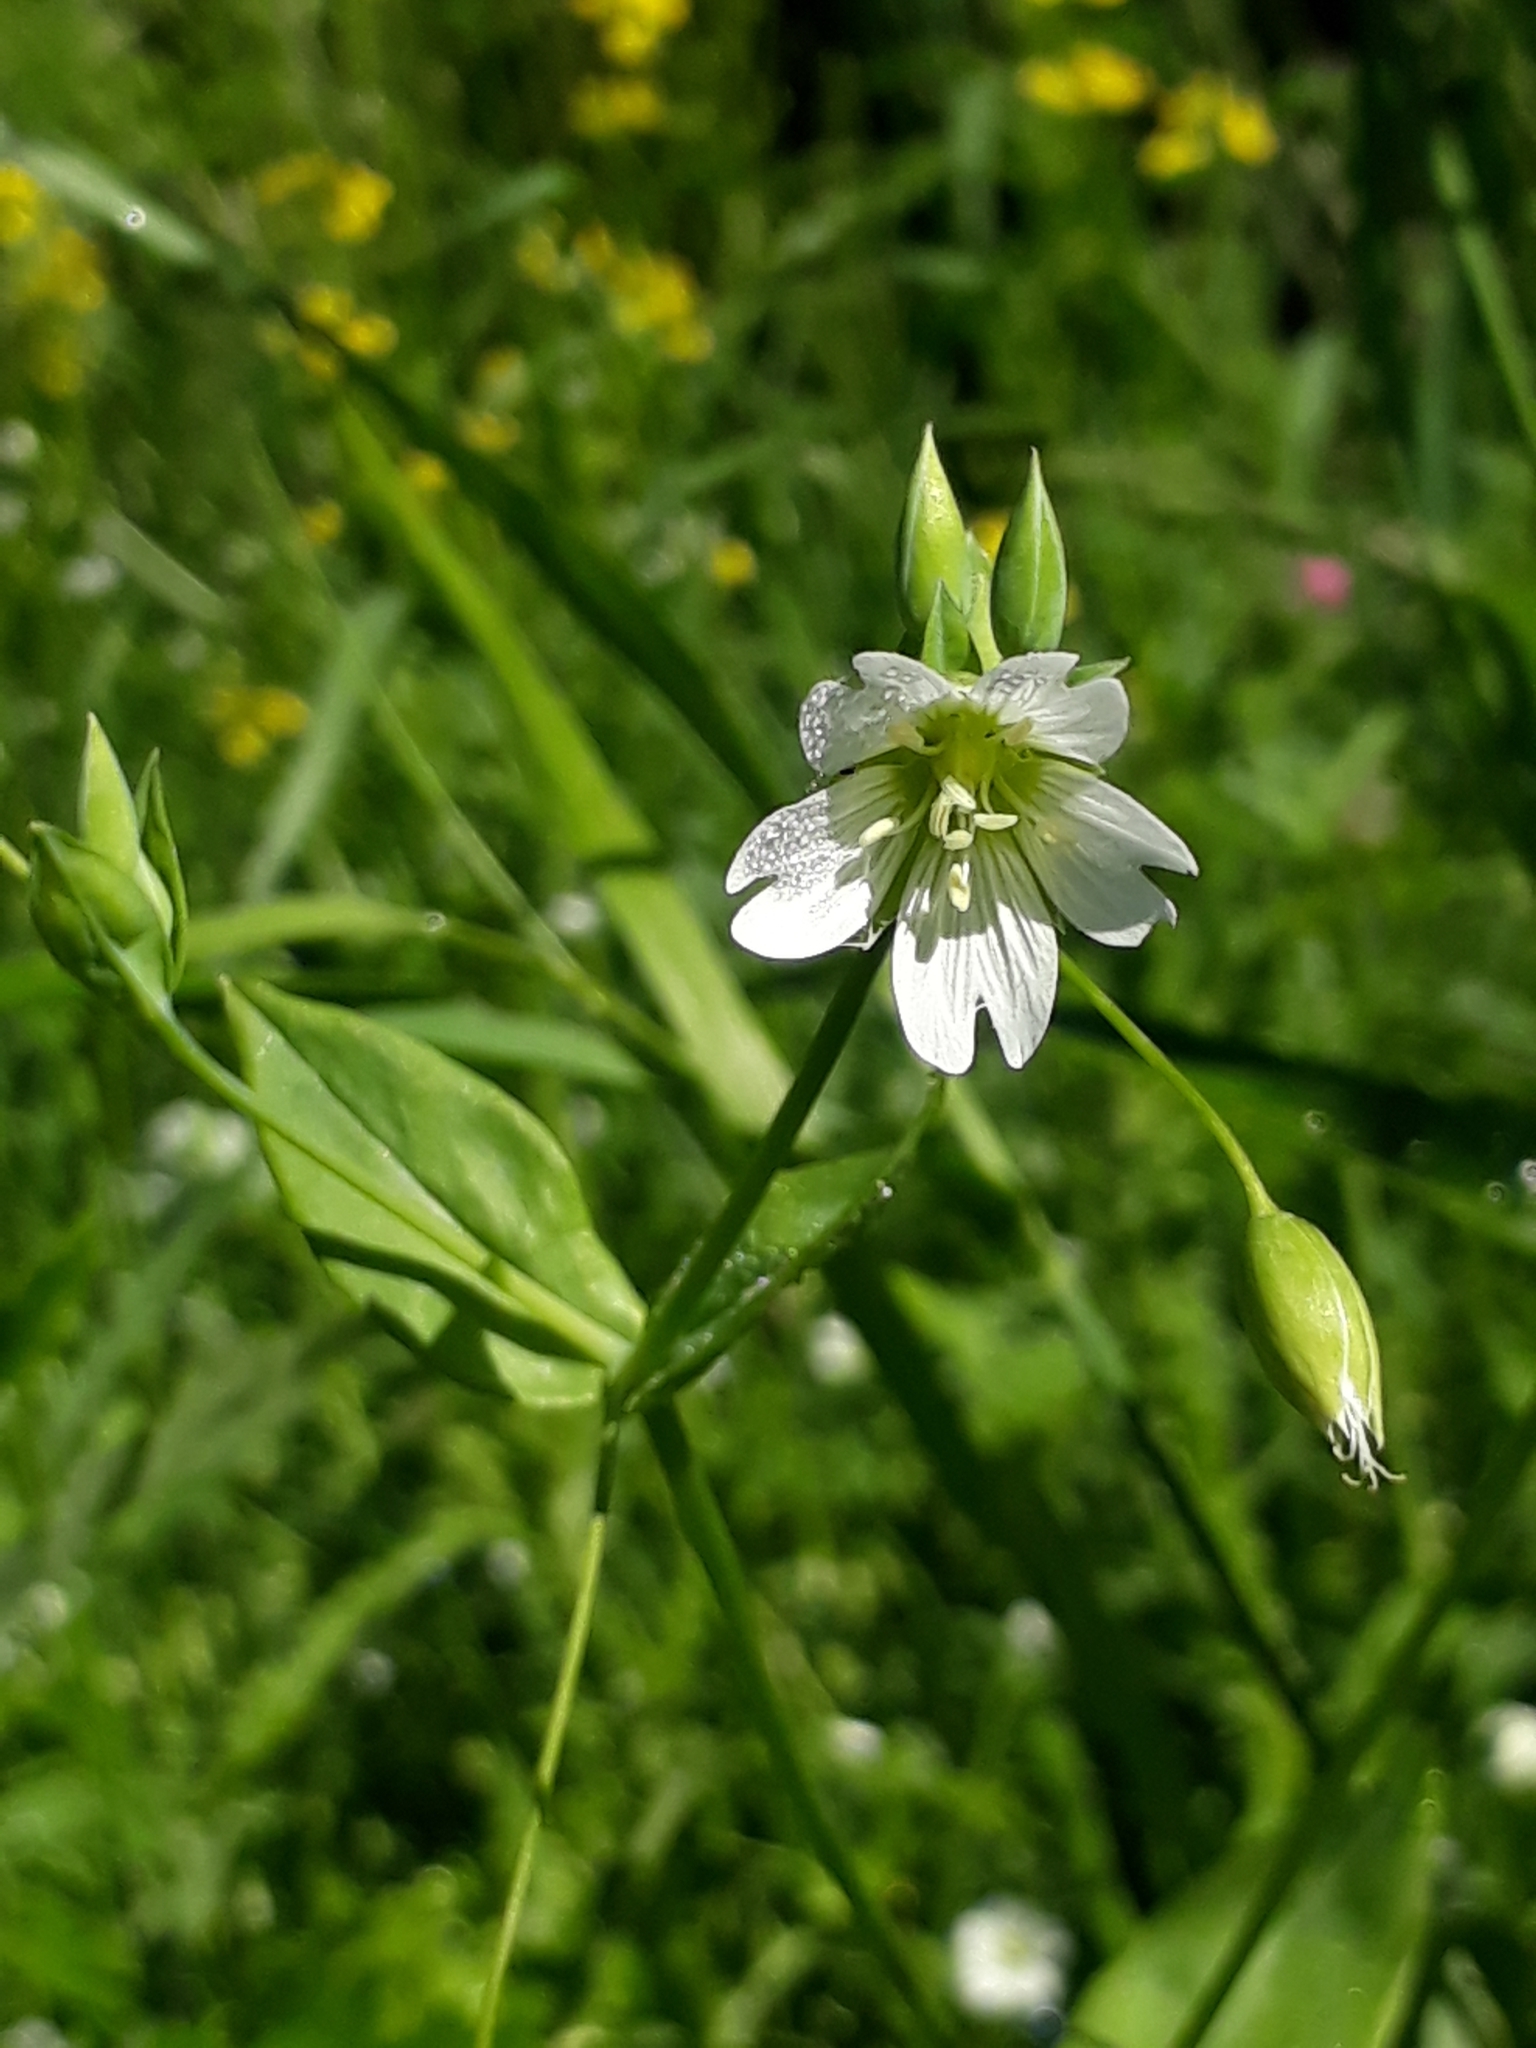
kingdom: Plantae
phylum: Tracheophyta
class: Magnoliopsida
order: Caryophyllales
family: Caryophyllaceae
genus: Cerastium
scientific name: Cerastium davuricum
